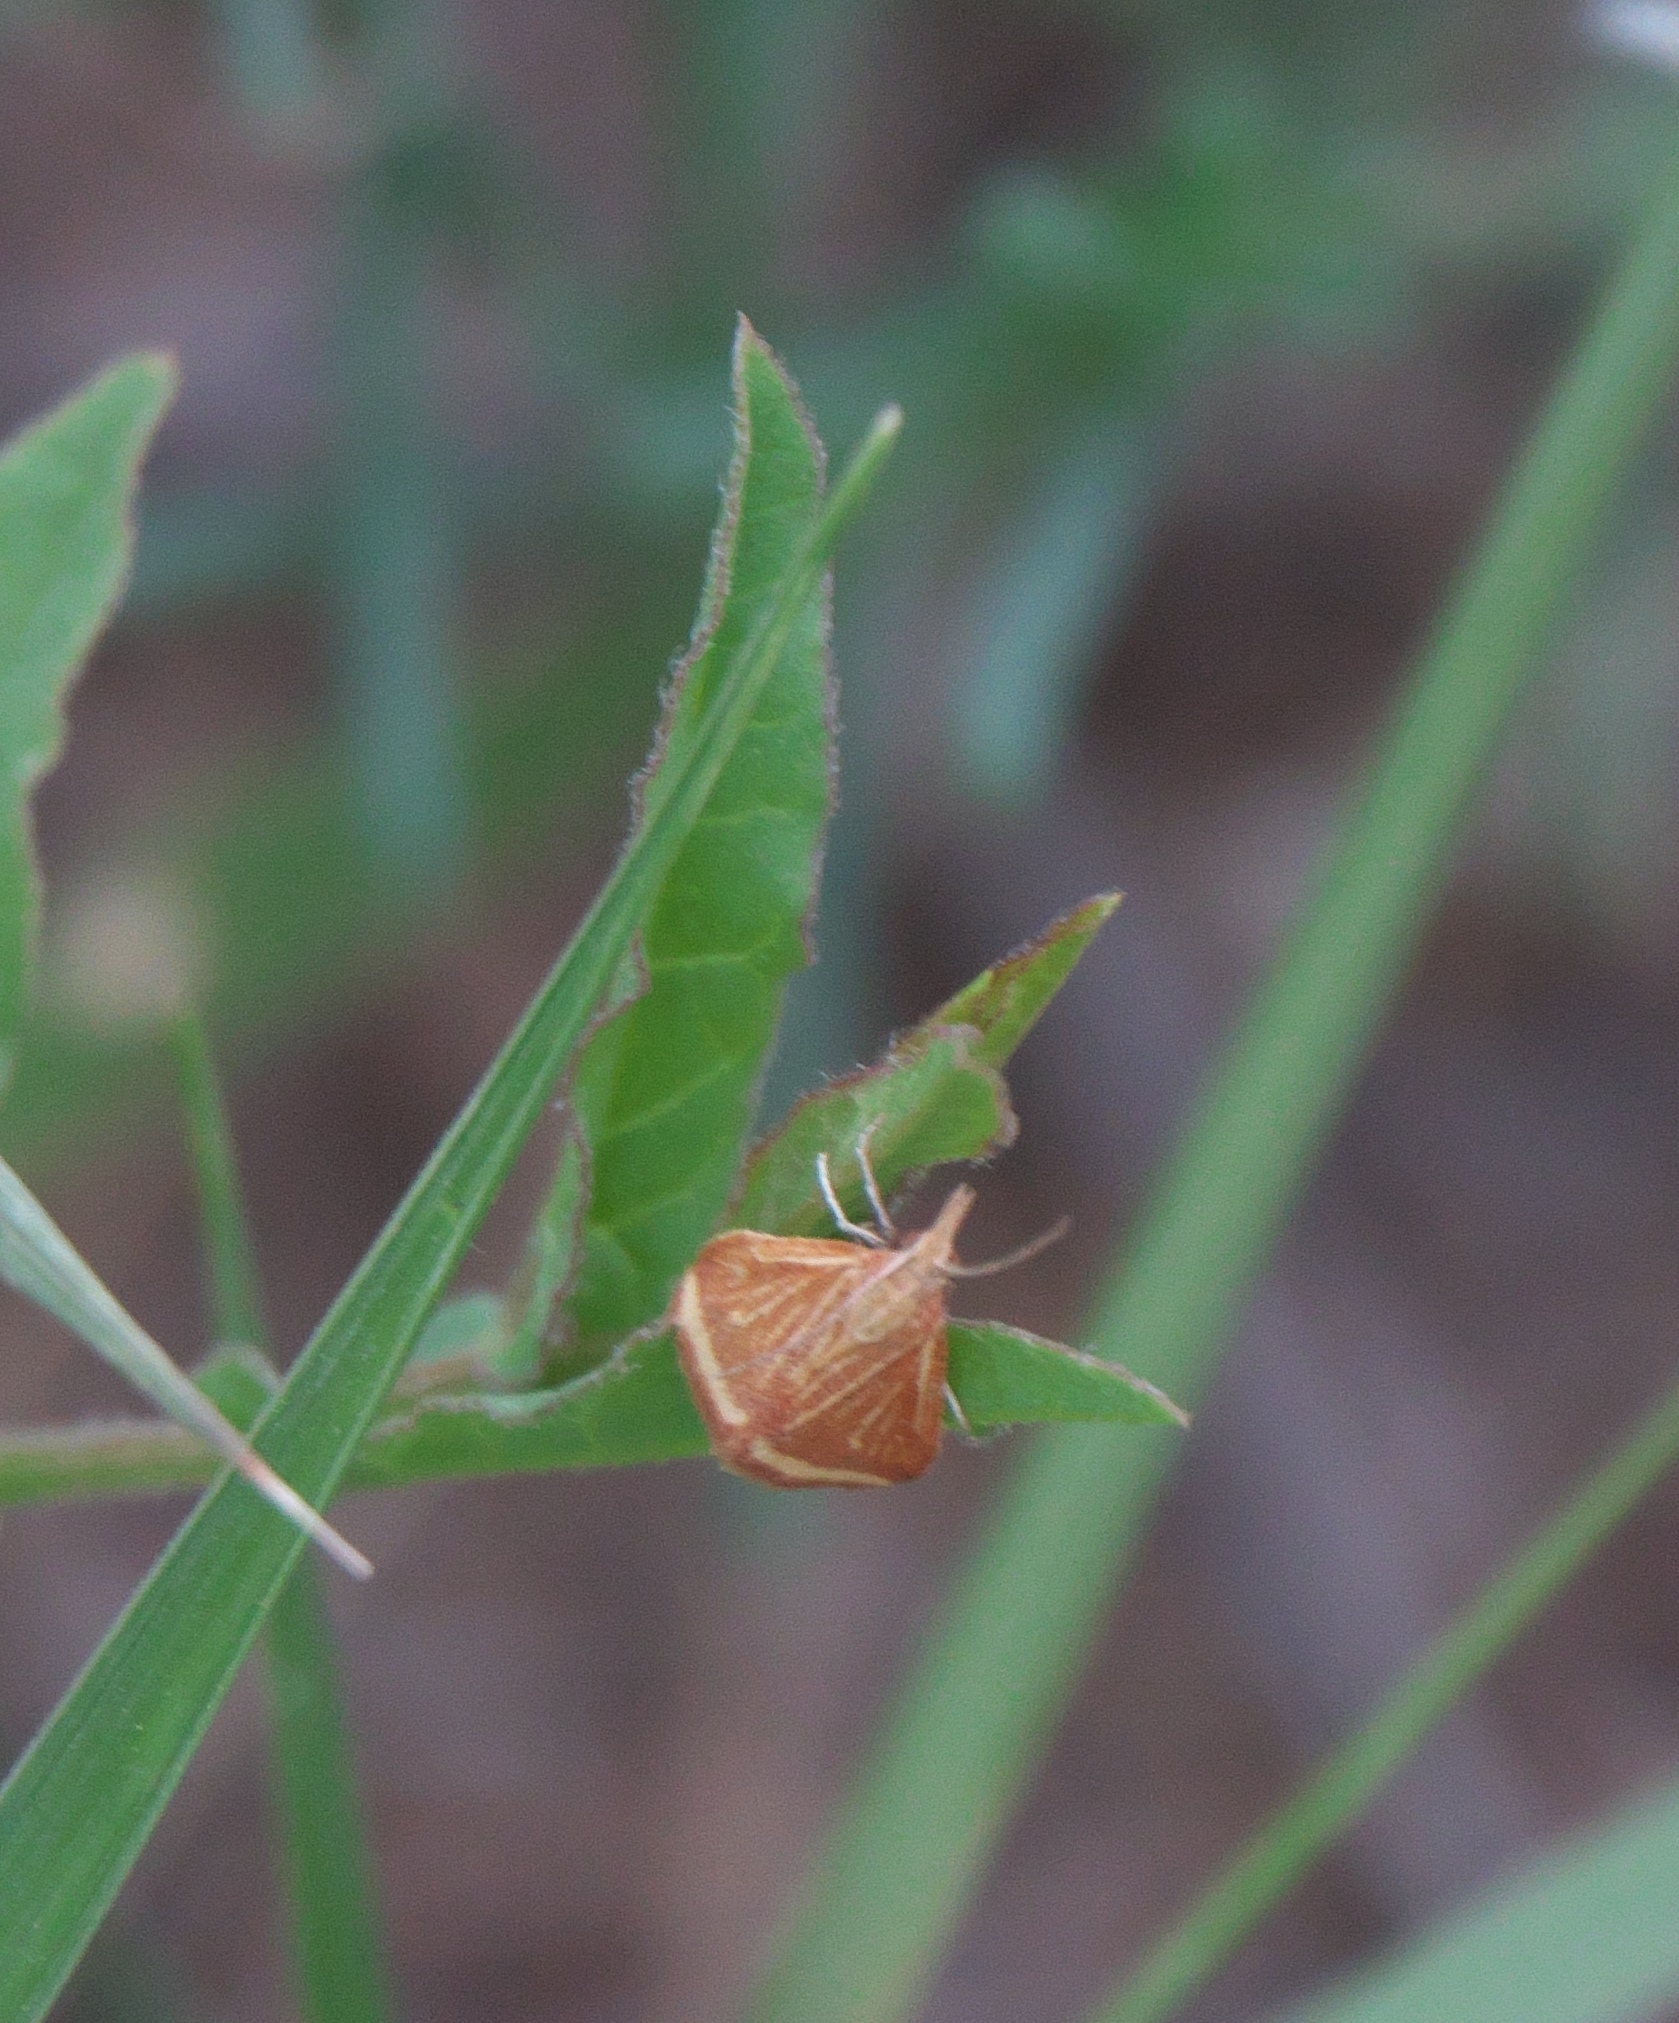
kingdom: Animalia
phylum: Arthropoda
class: Insecta
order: Lepidoptera
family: Crambidae
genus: Microtheoris
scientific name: Microtheoris ophionalis
